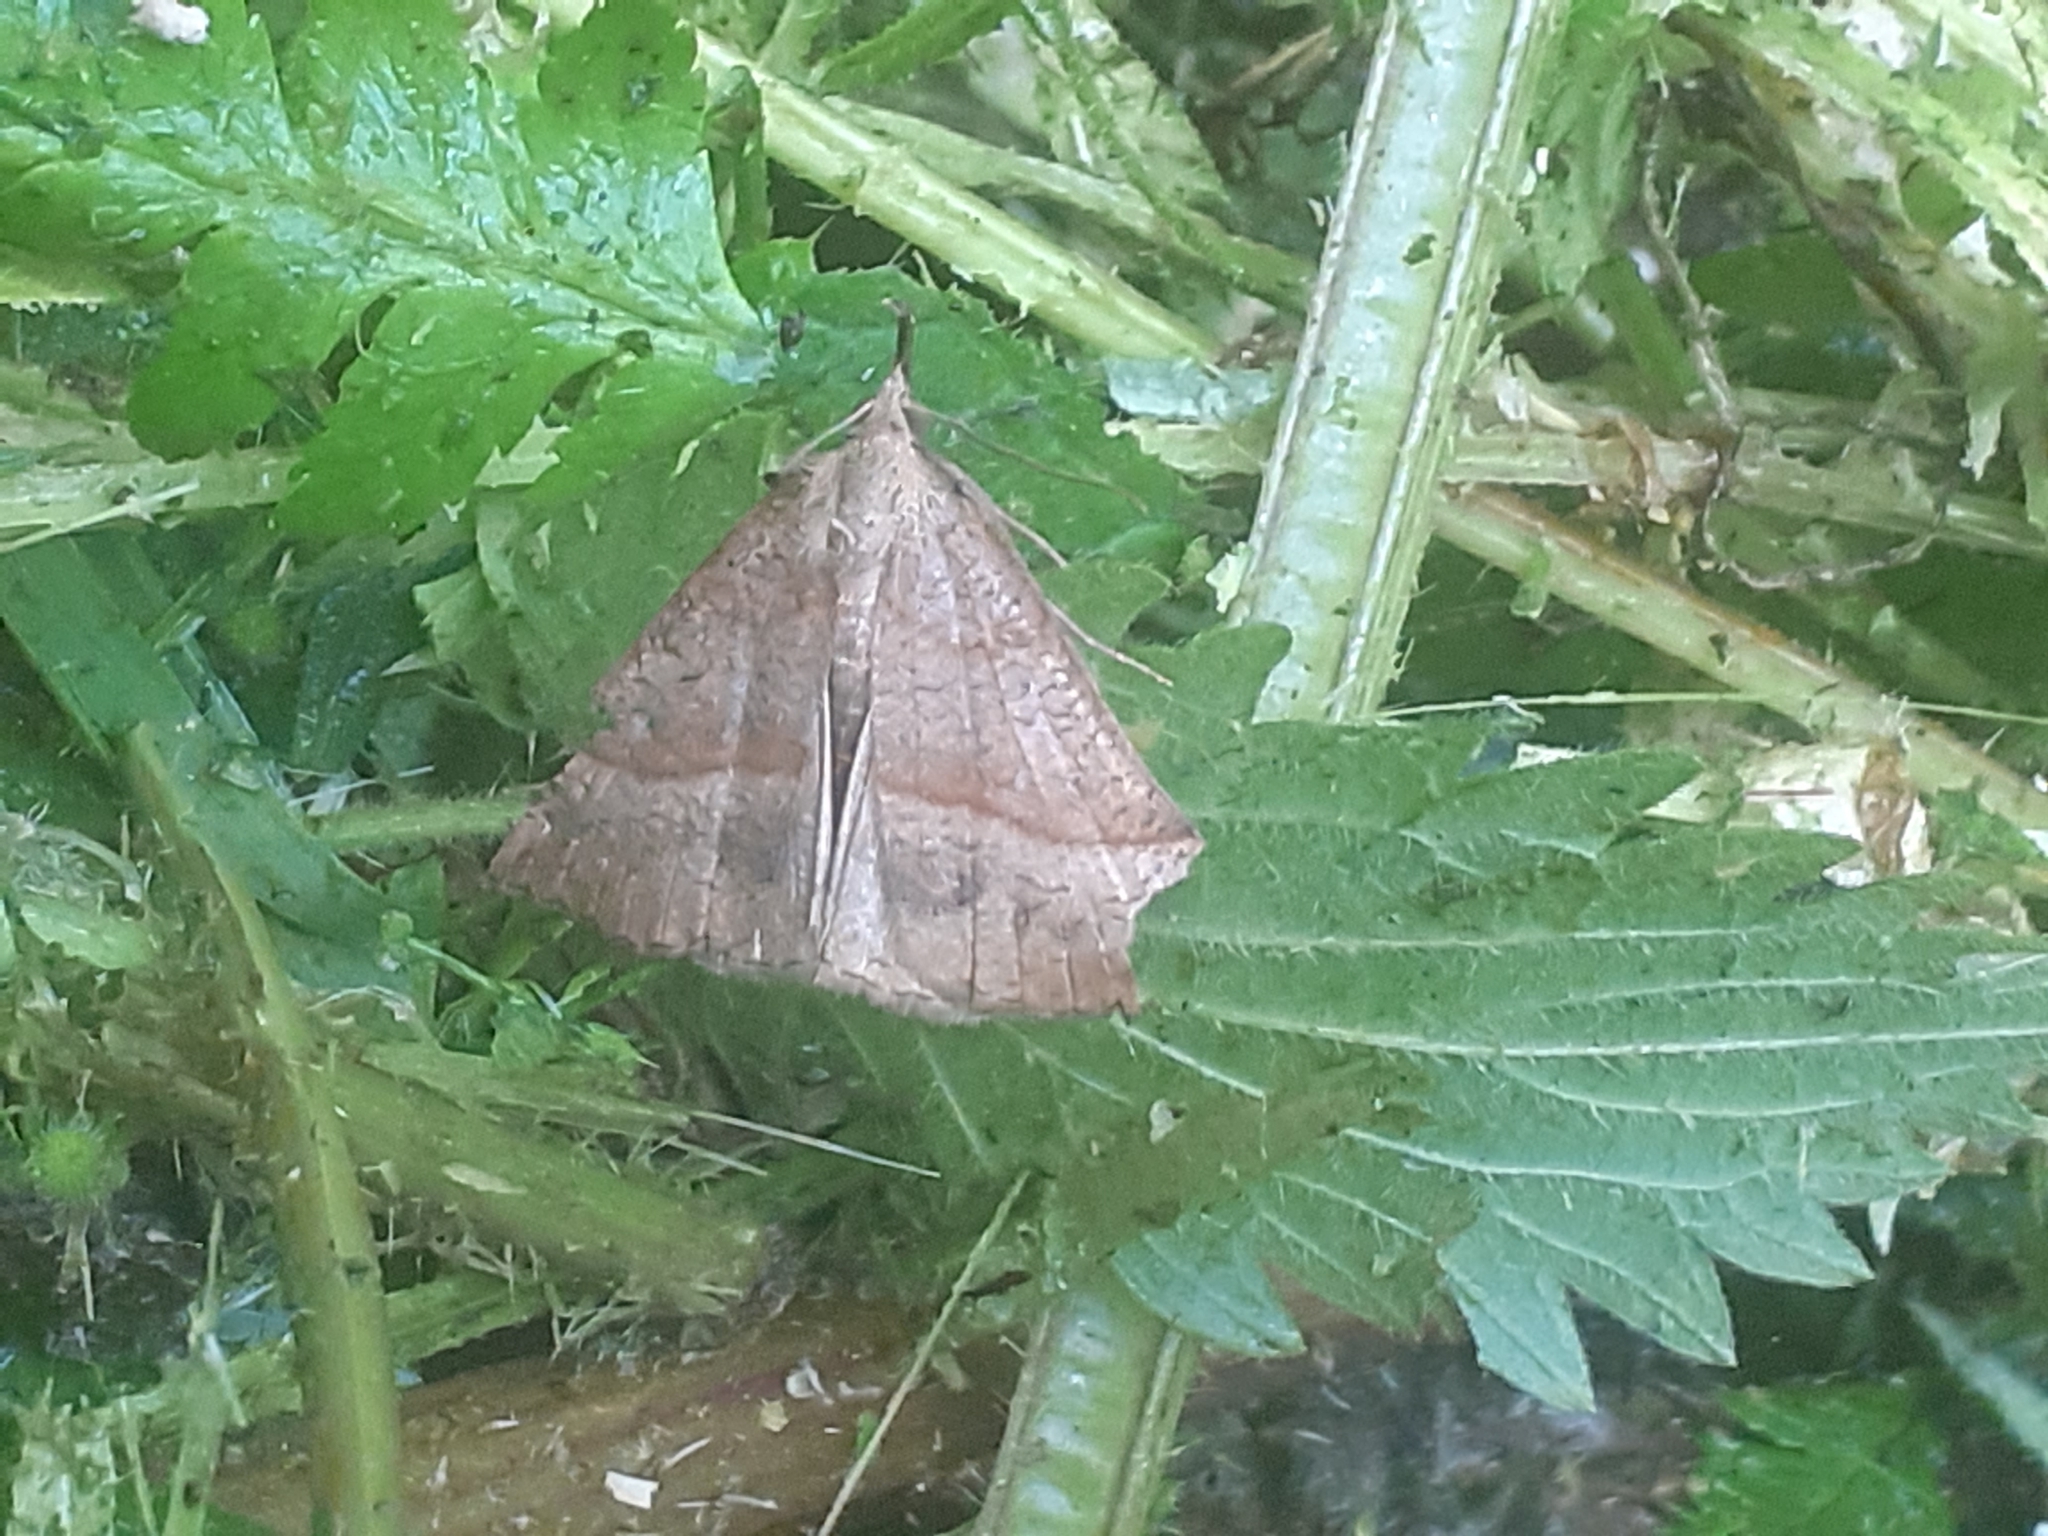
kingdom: Animalia
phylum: Arthropoda
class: Insecta
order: Lepidoptera
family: Erebidae
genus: Hypena
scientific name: Hypena proboscidalis
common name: Snout
